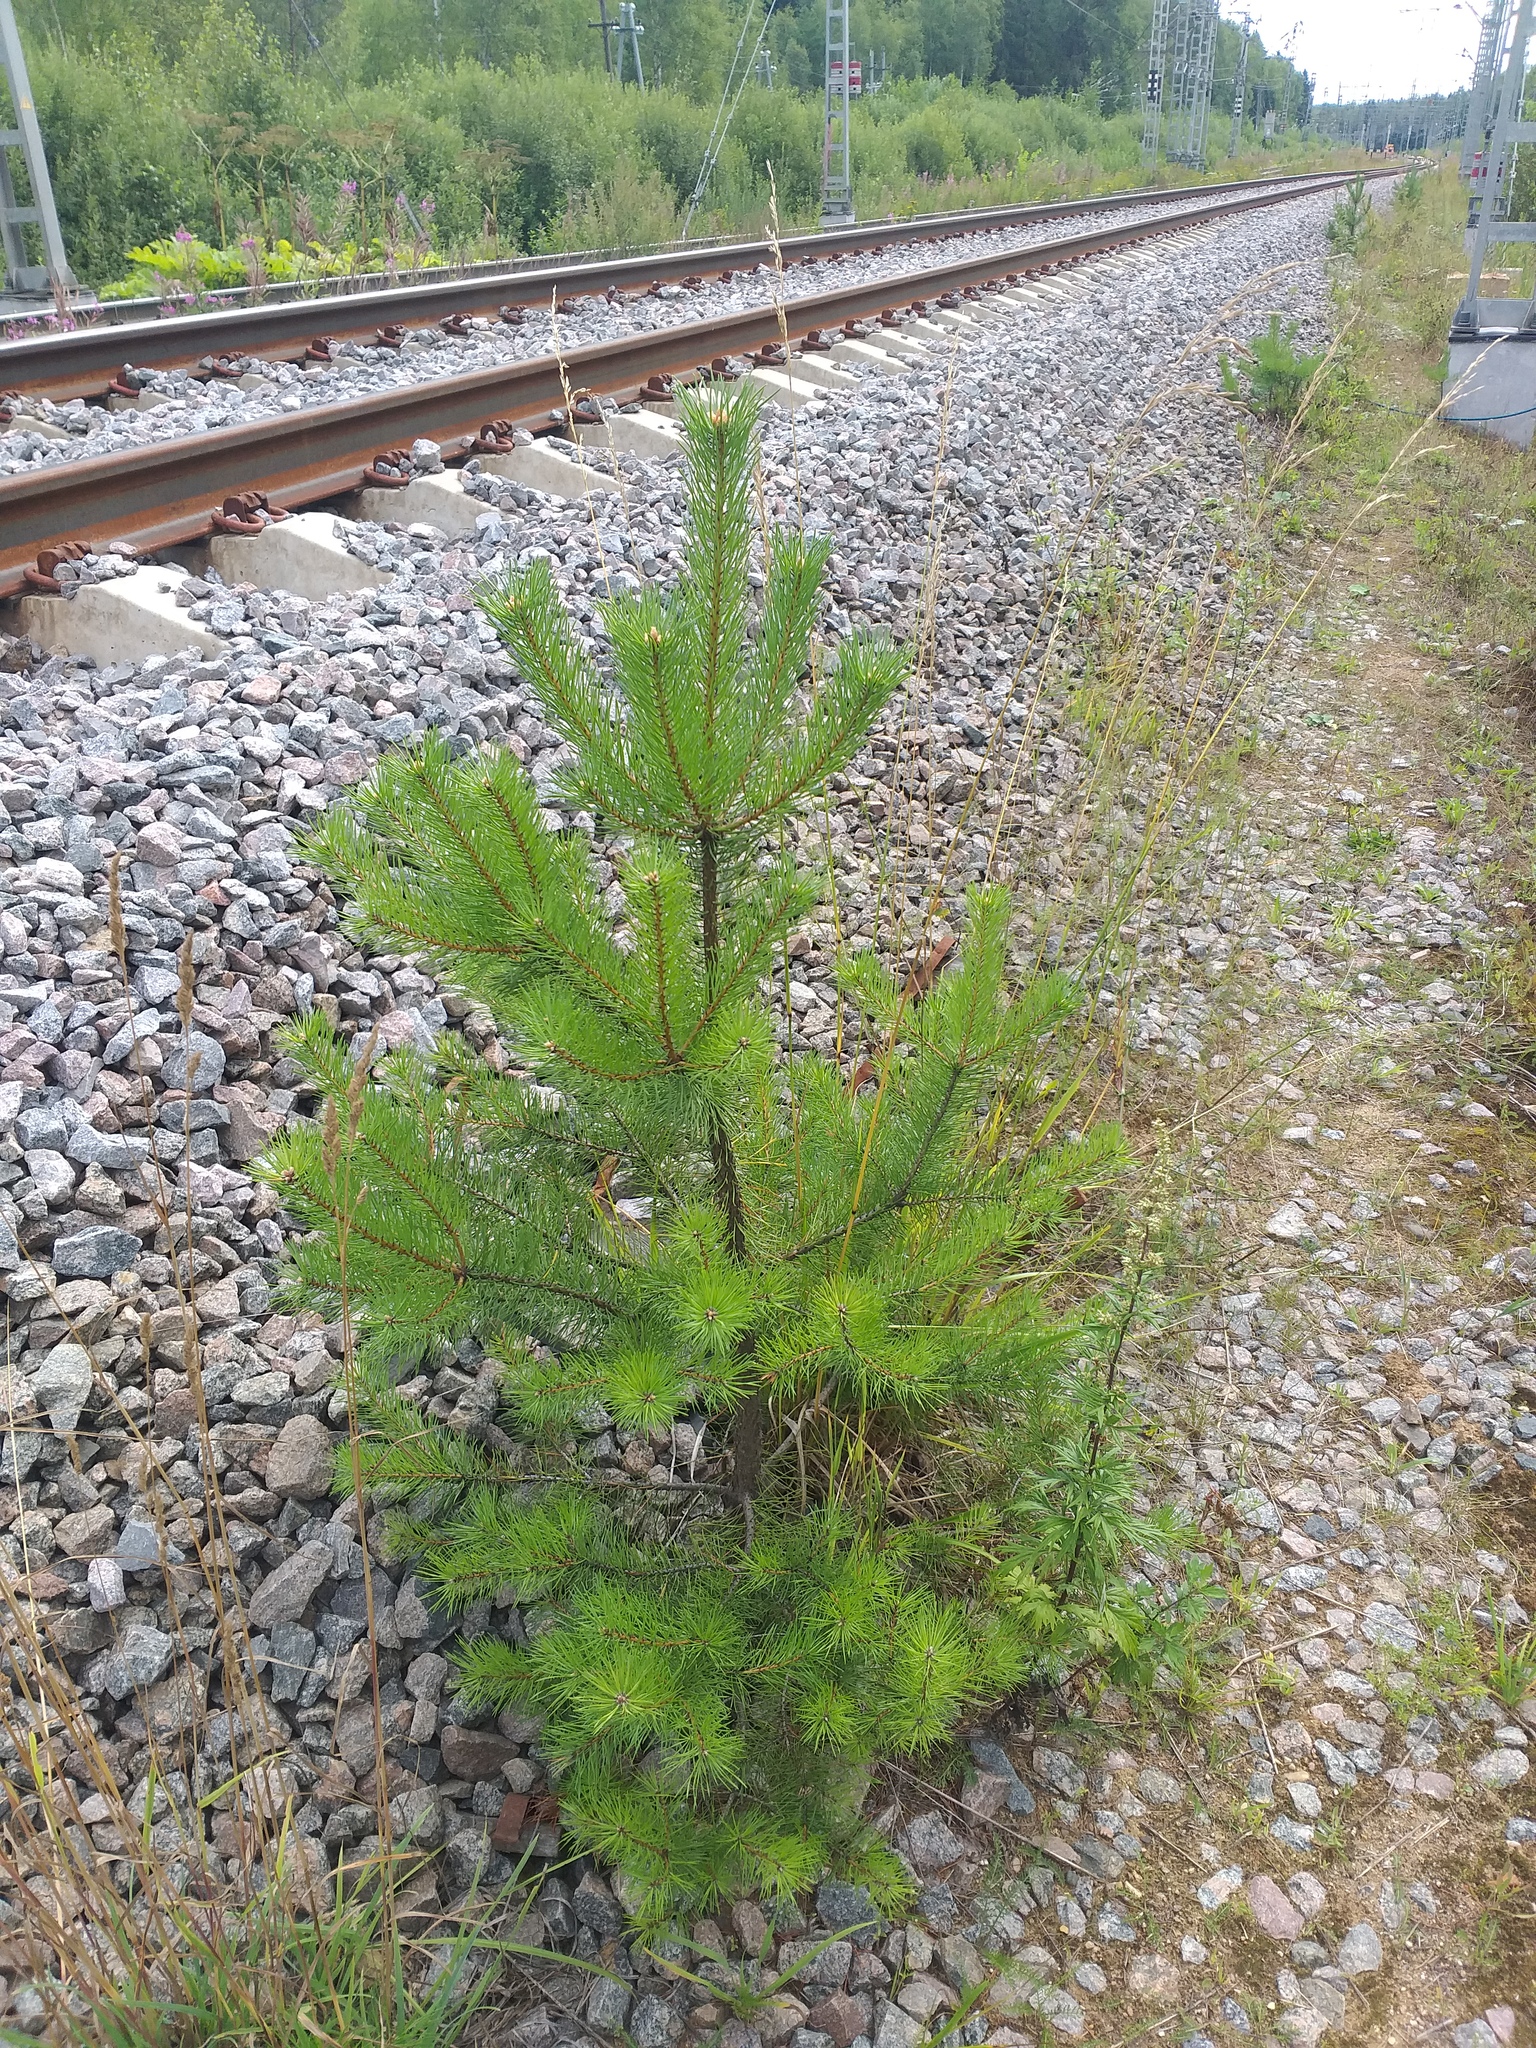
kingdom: Plantae
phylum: Tracheophyta
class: Pinopsida
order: Pinales
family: Pinaceae
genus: Pinus
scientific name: Pinus sylvestris
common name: Scots pine
